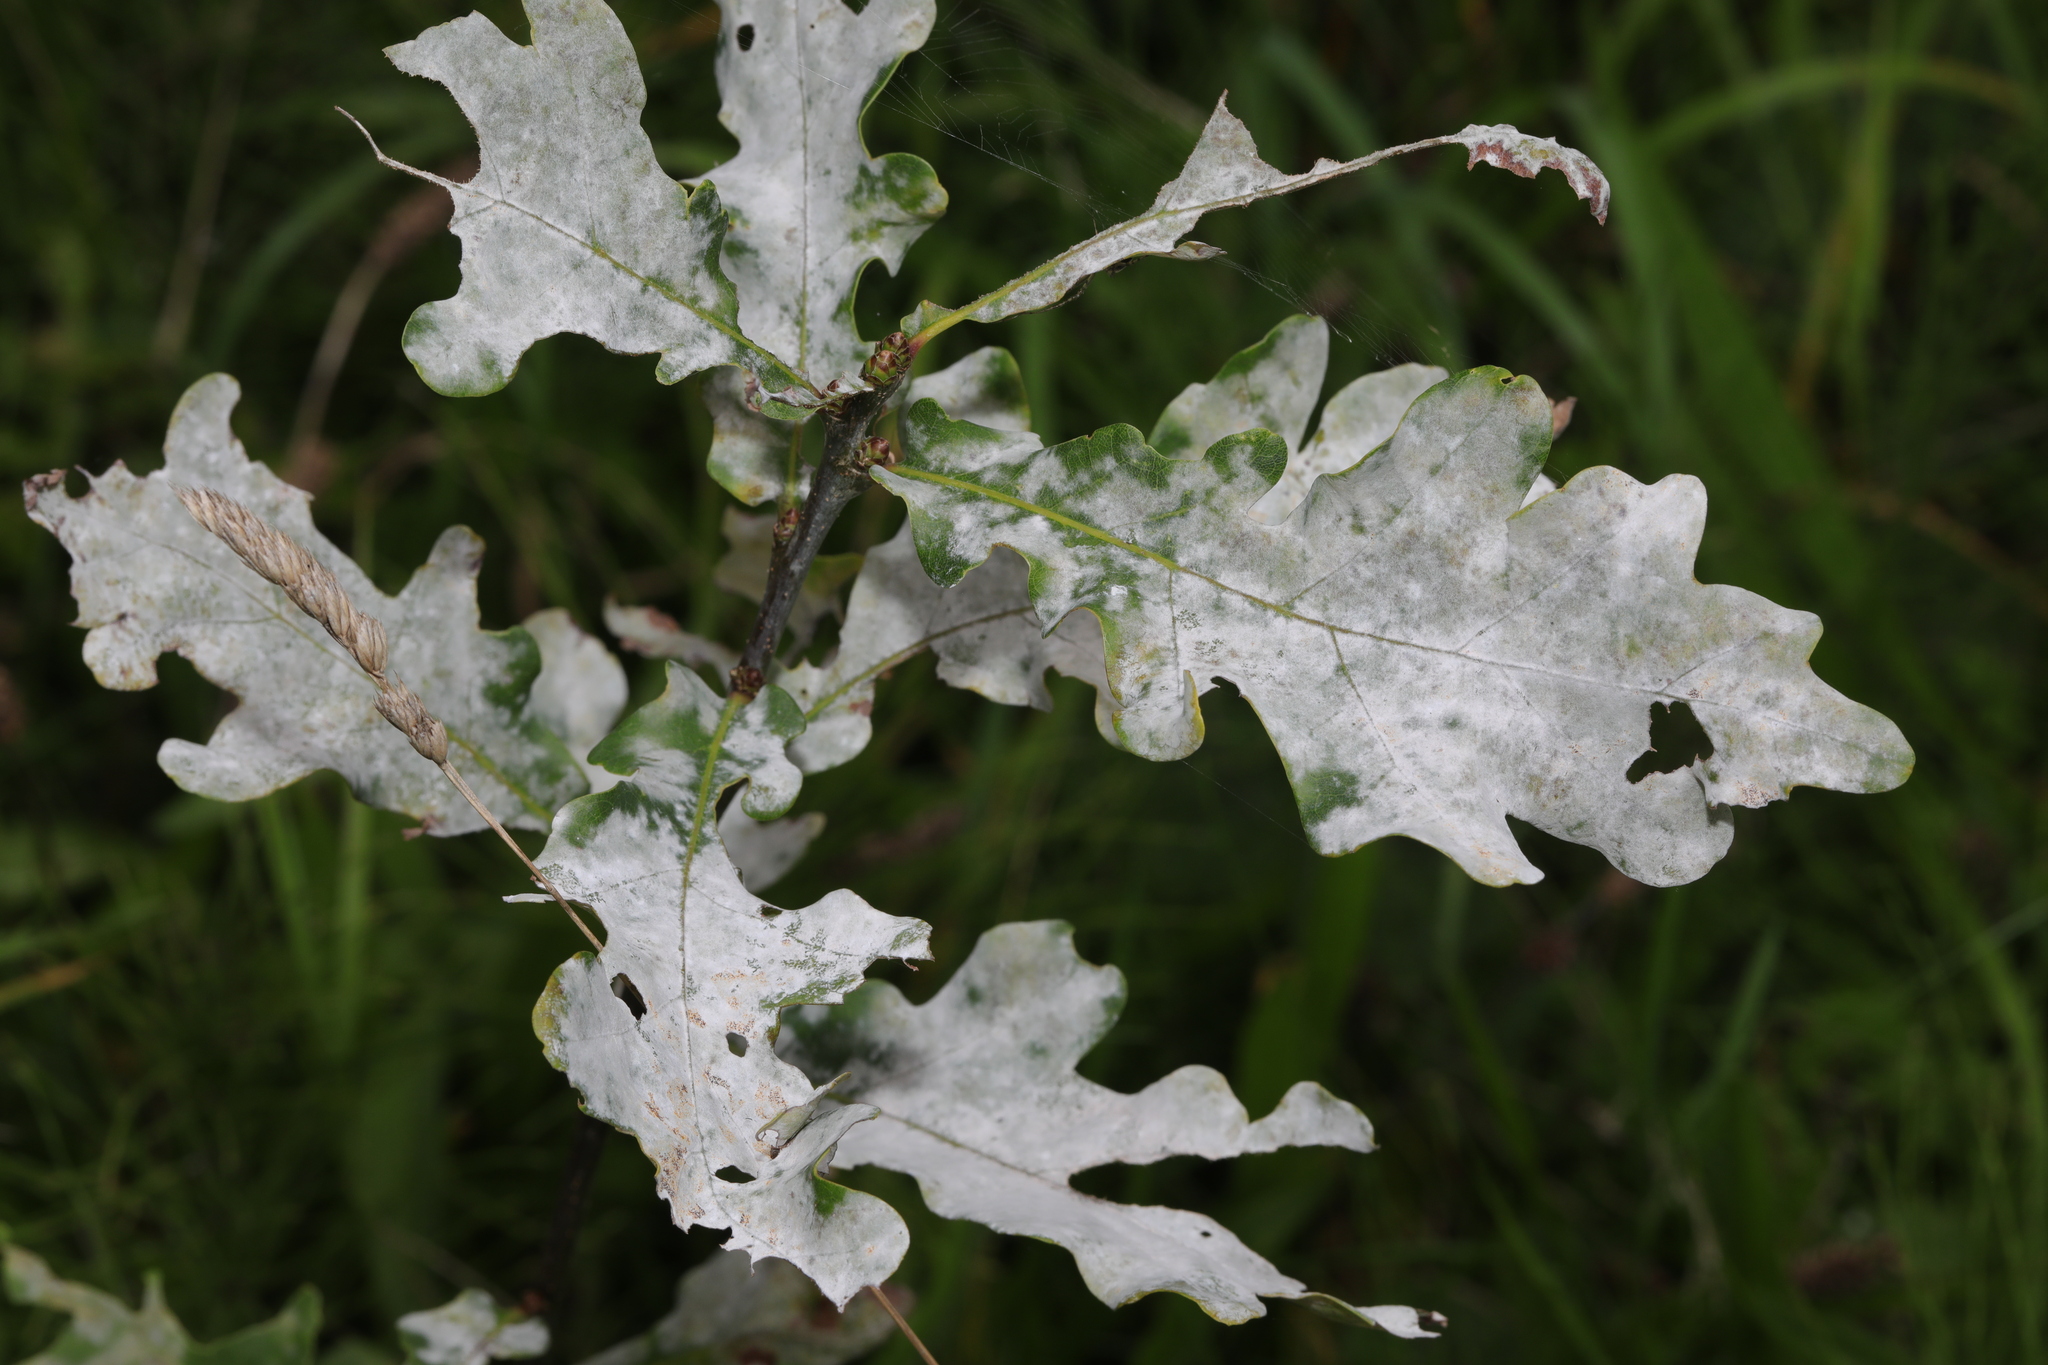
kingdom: Fungi
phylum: Ascomycota
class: Leotiomycetes
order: Helotiales
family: Erysiphaceae
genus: Erysiphe
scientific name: Erysiphe alphitoides
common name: Oak mildew
